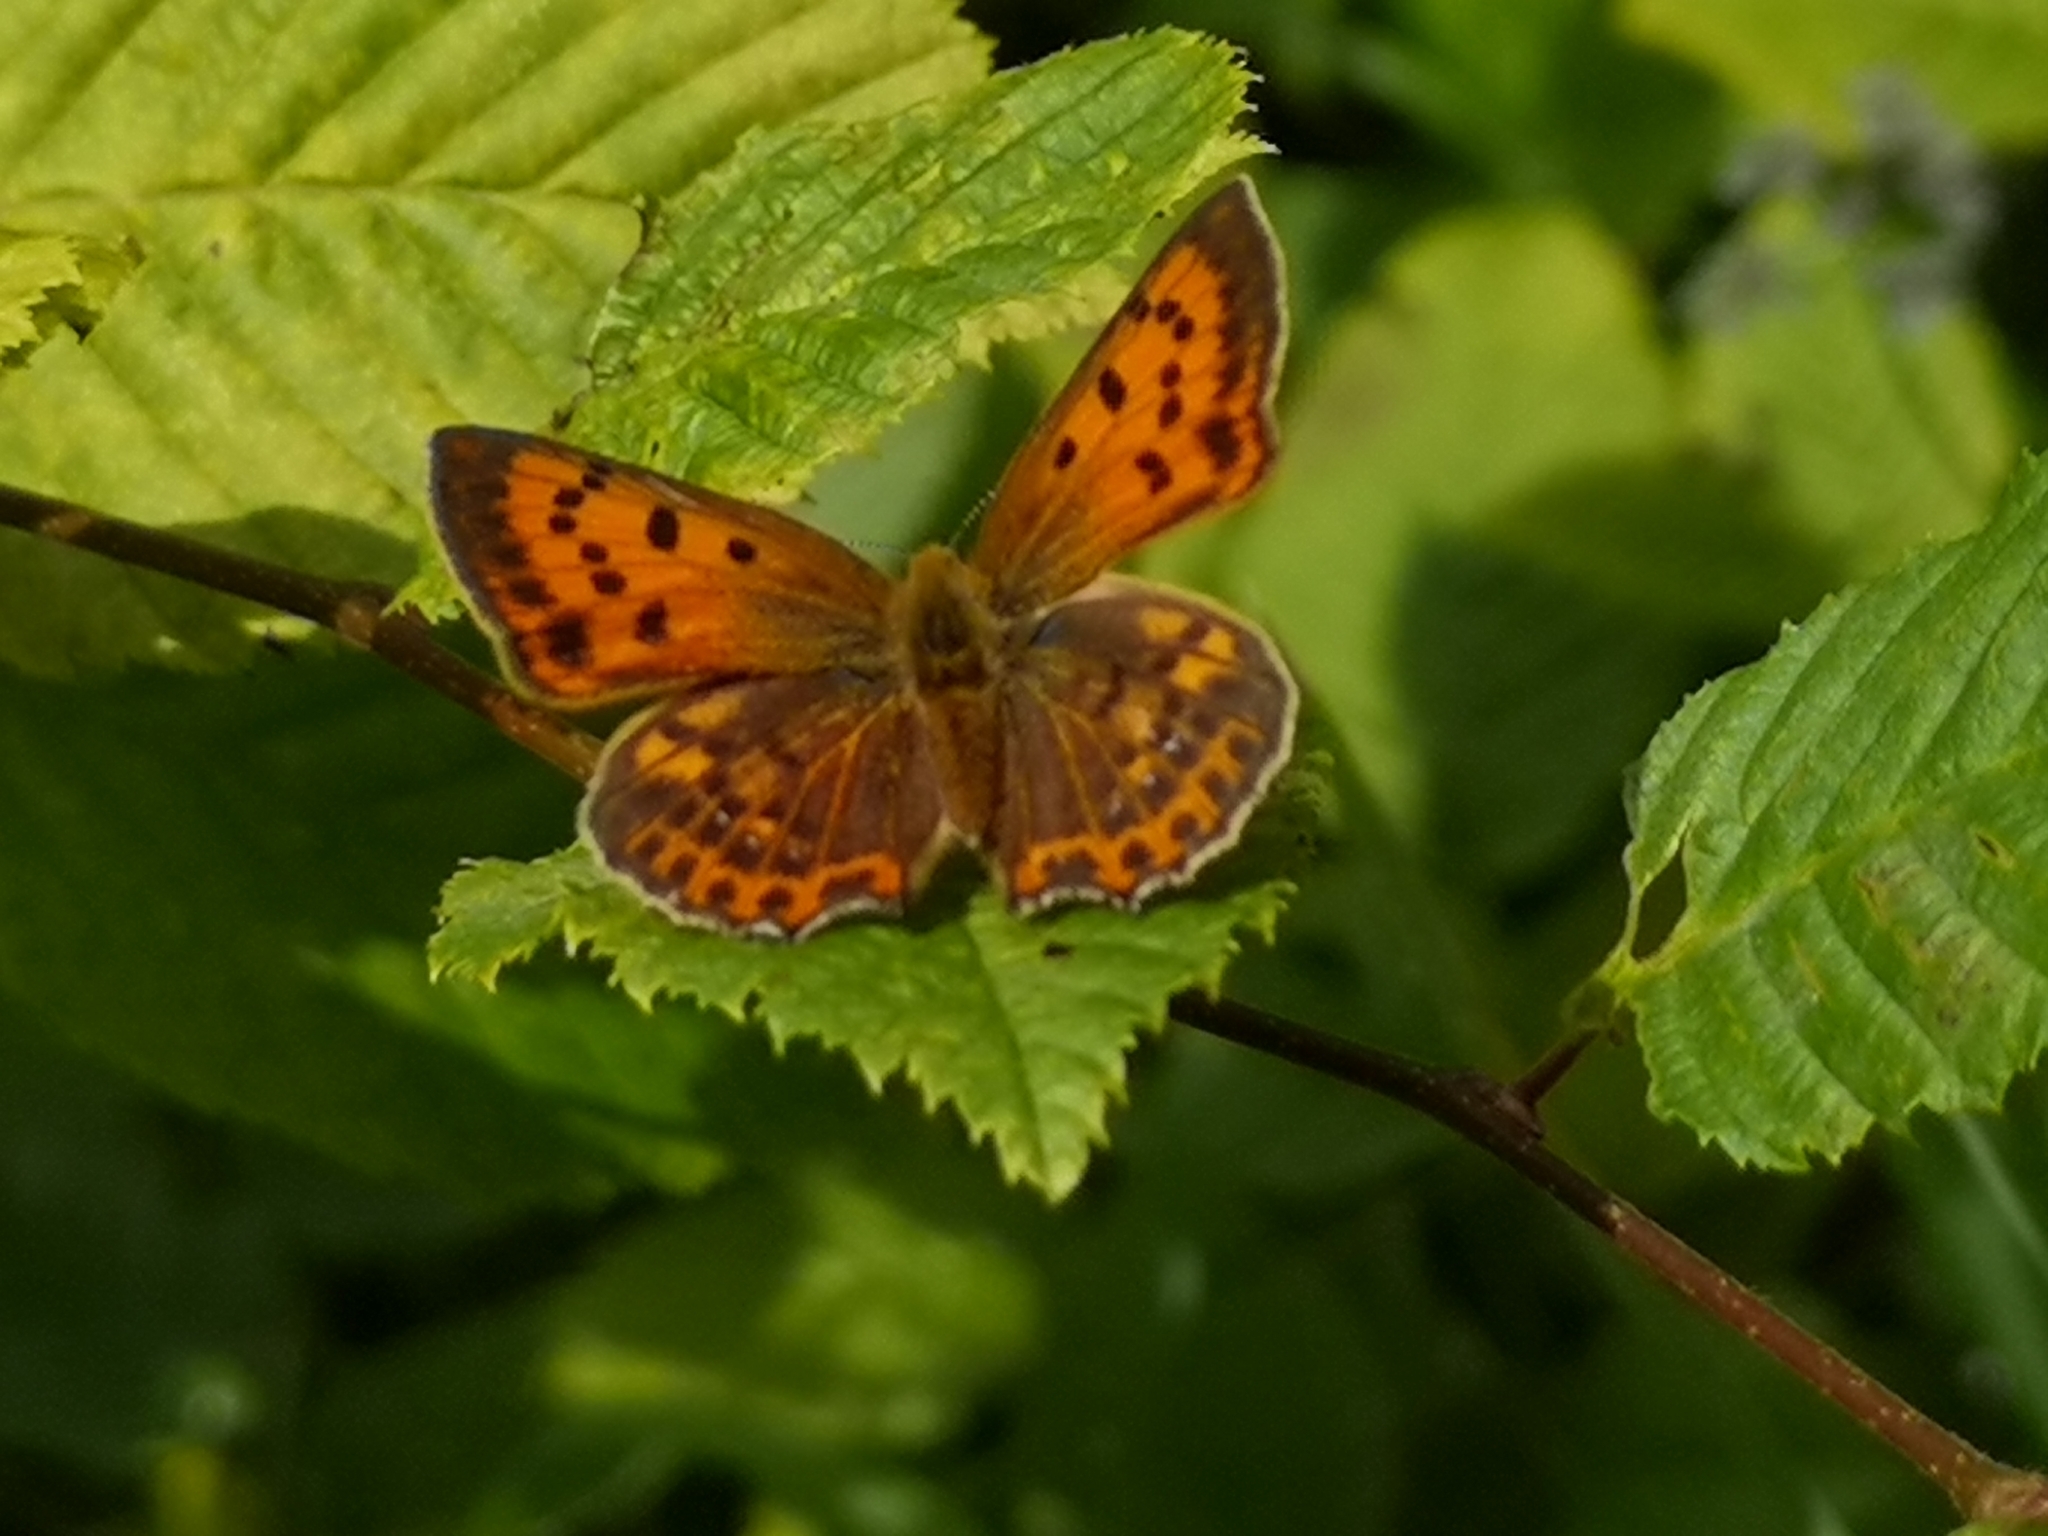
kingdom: Animalia
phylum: Arthropoda
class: Insecta
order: Lepidoptera
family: Lycaenidae
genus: Lycaena
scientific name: Lycaena virgaureae
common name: Scarce copper
